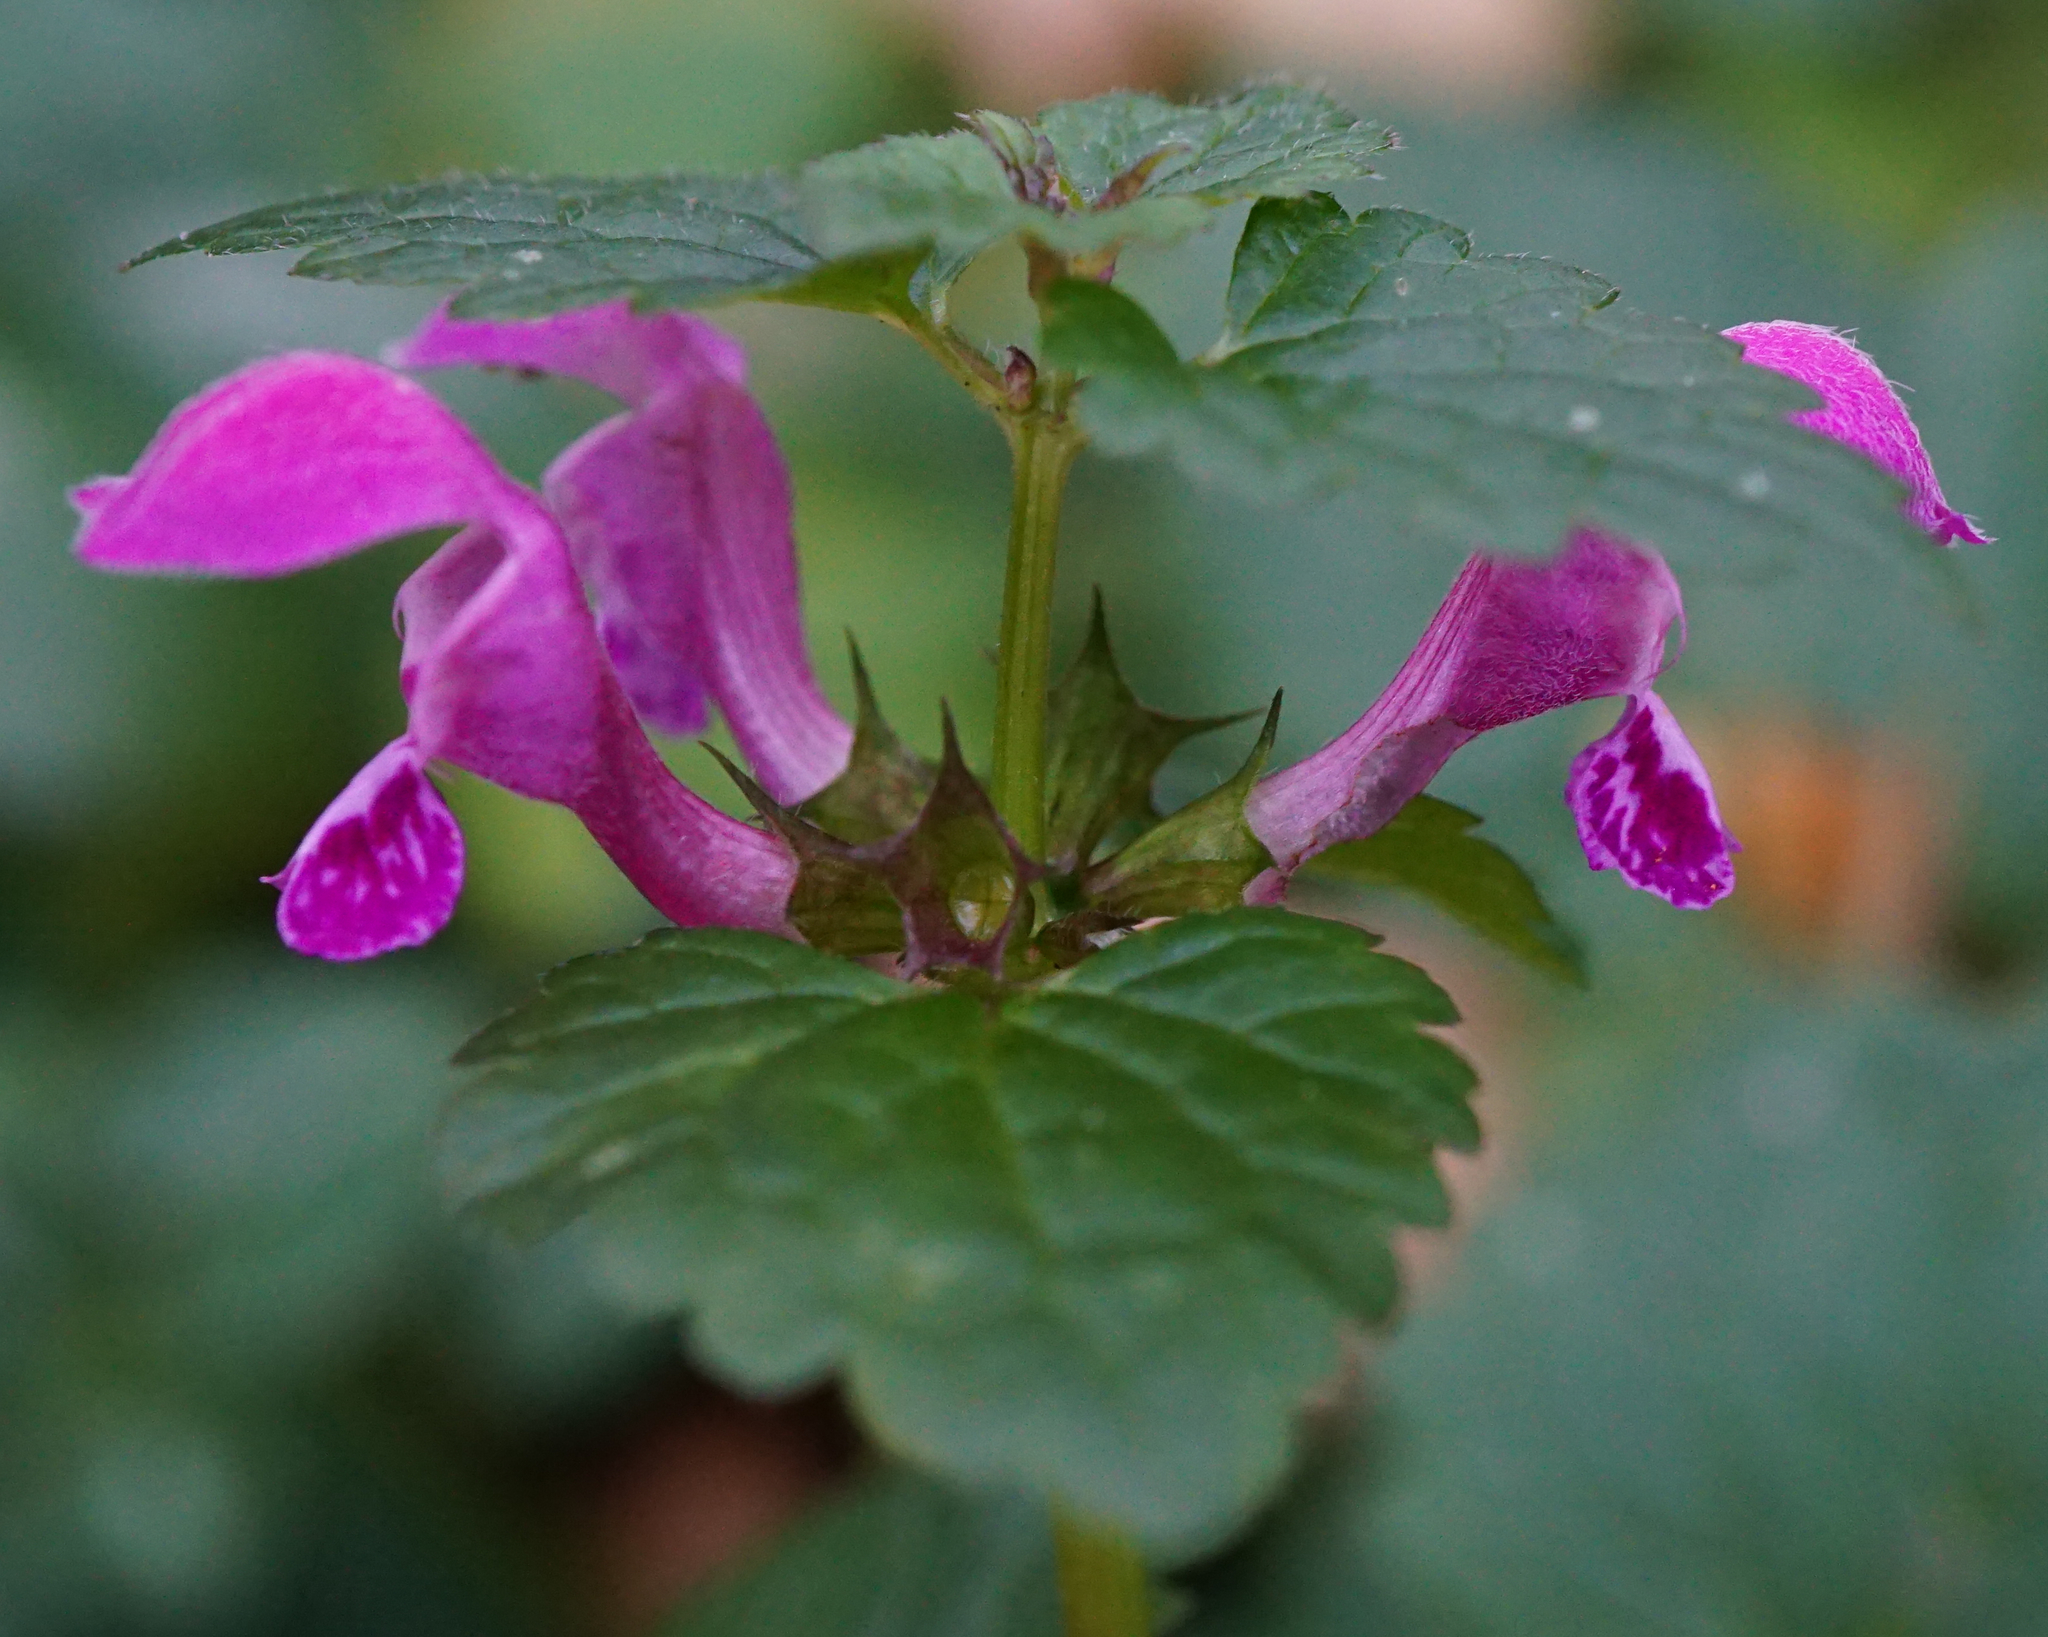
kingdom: Plantae
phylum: Tracheophyta
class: Magnoliopsida
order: Lamiales
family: Lamiaceae
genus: Lamium
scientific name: Lamium maculatum
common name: Spotted dead-nettle
